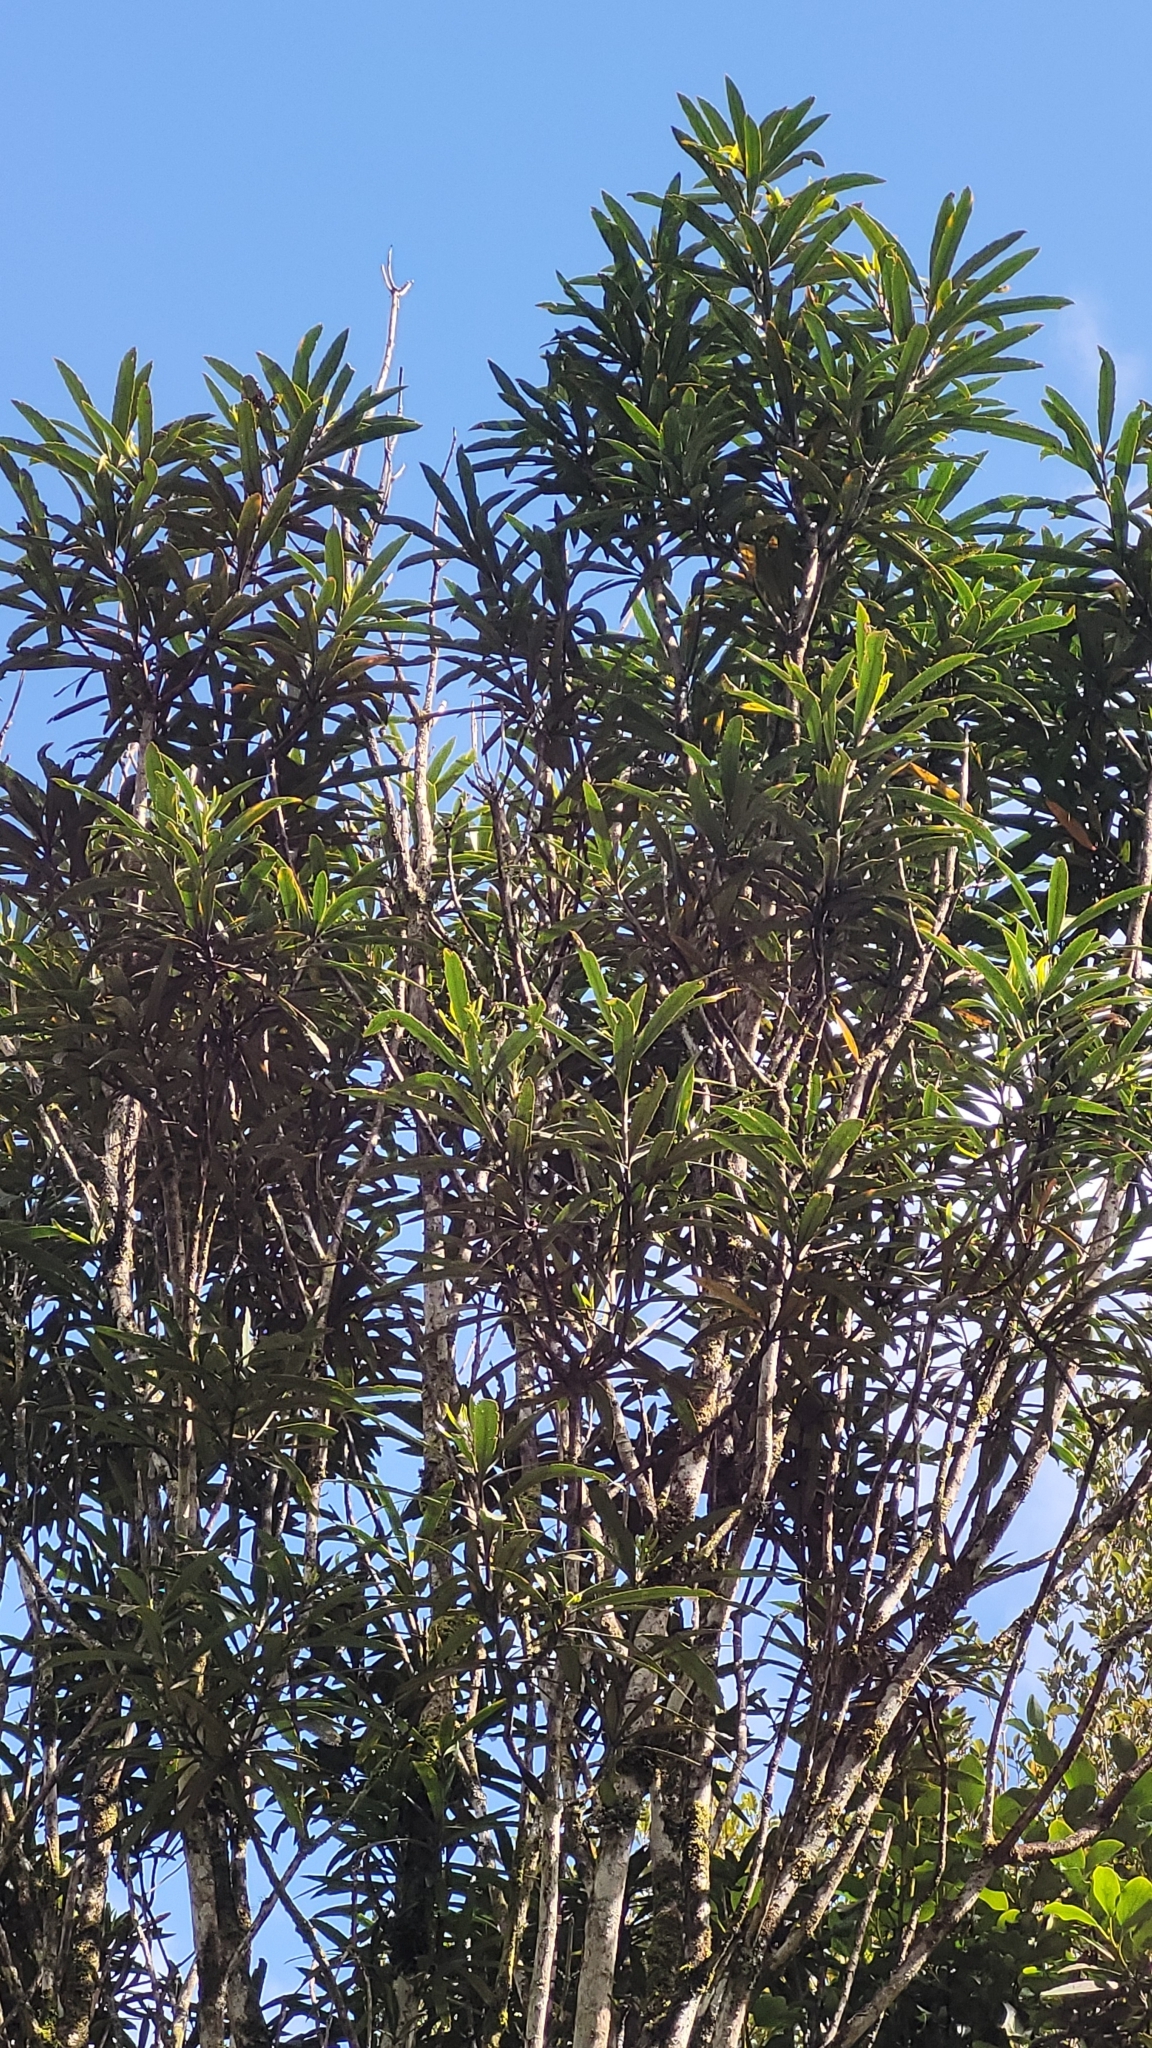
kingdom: Plantae
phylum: Tracheophyta
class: Magnoliopsida
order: Apiales
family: Araliaceae
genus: Pseudopanax
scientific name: Pseudopanax crassifolius
